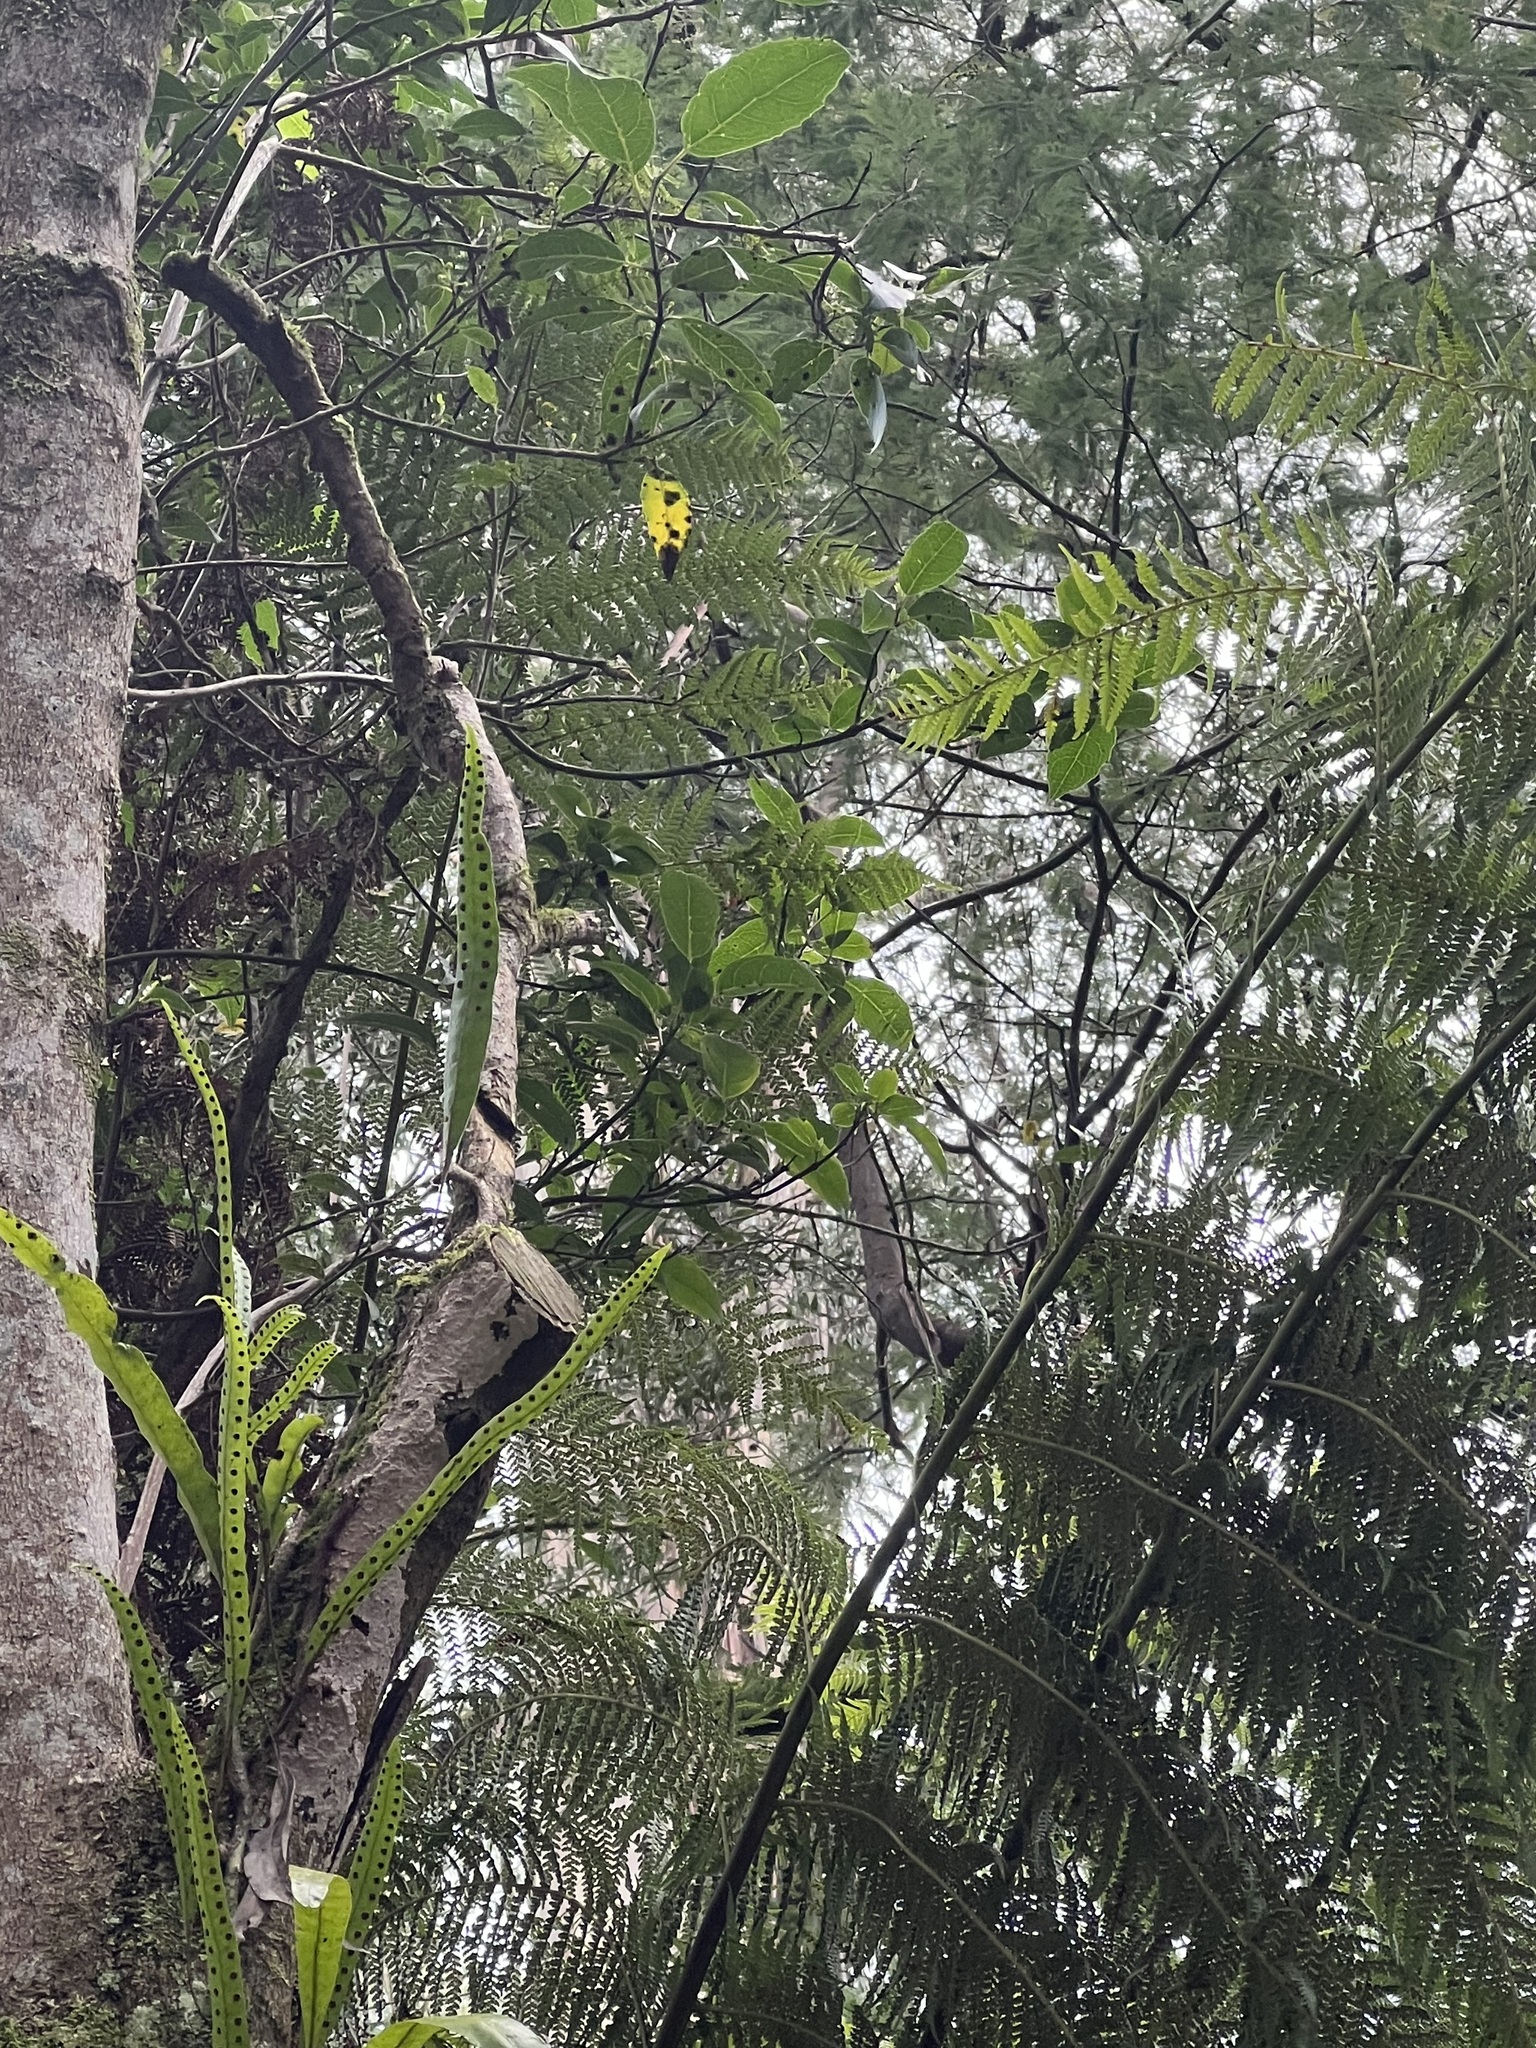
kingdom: Plantae
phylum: Tracheophyta
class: Magnoliopsida
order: Laurales
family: Monimiaceae
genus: Hedycarya
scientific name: Hedycarya angustifolia
